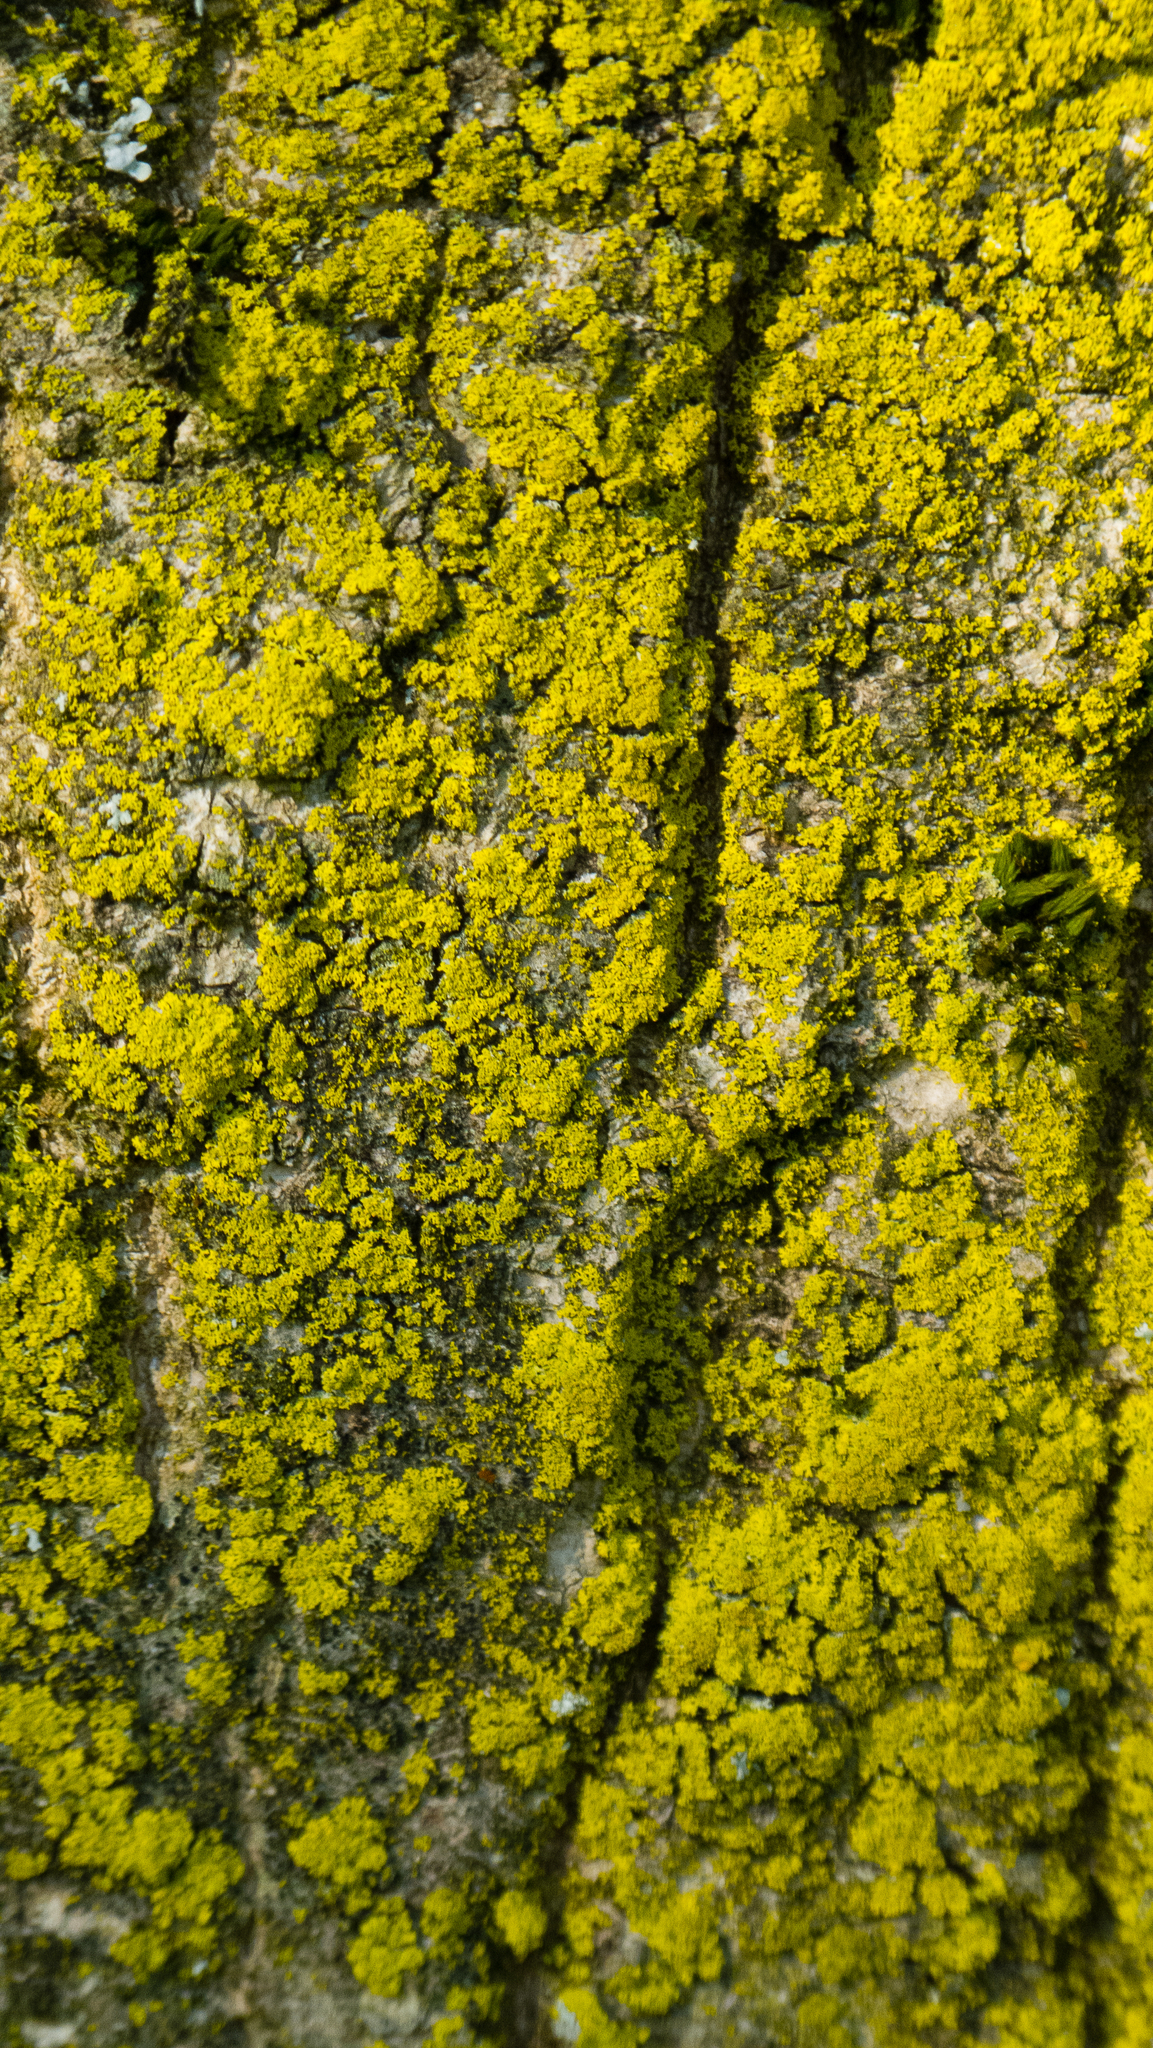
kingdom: Fungi
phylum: Ascomycota
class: Candelariomycetes
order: Candelariales
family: Candelariaceae
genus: Candelaria
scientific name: Candelaria concolor
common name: Candleflame lichen
